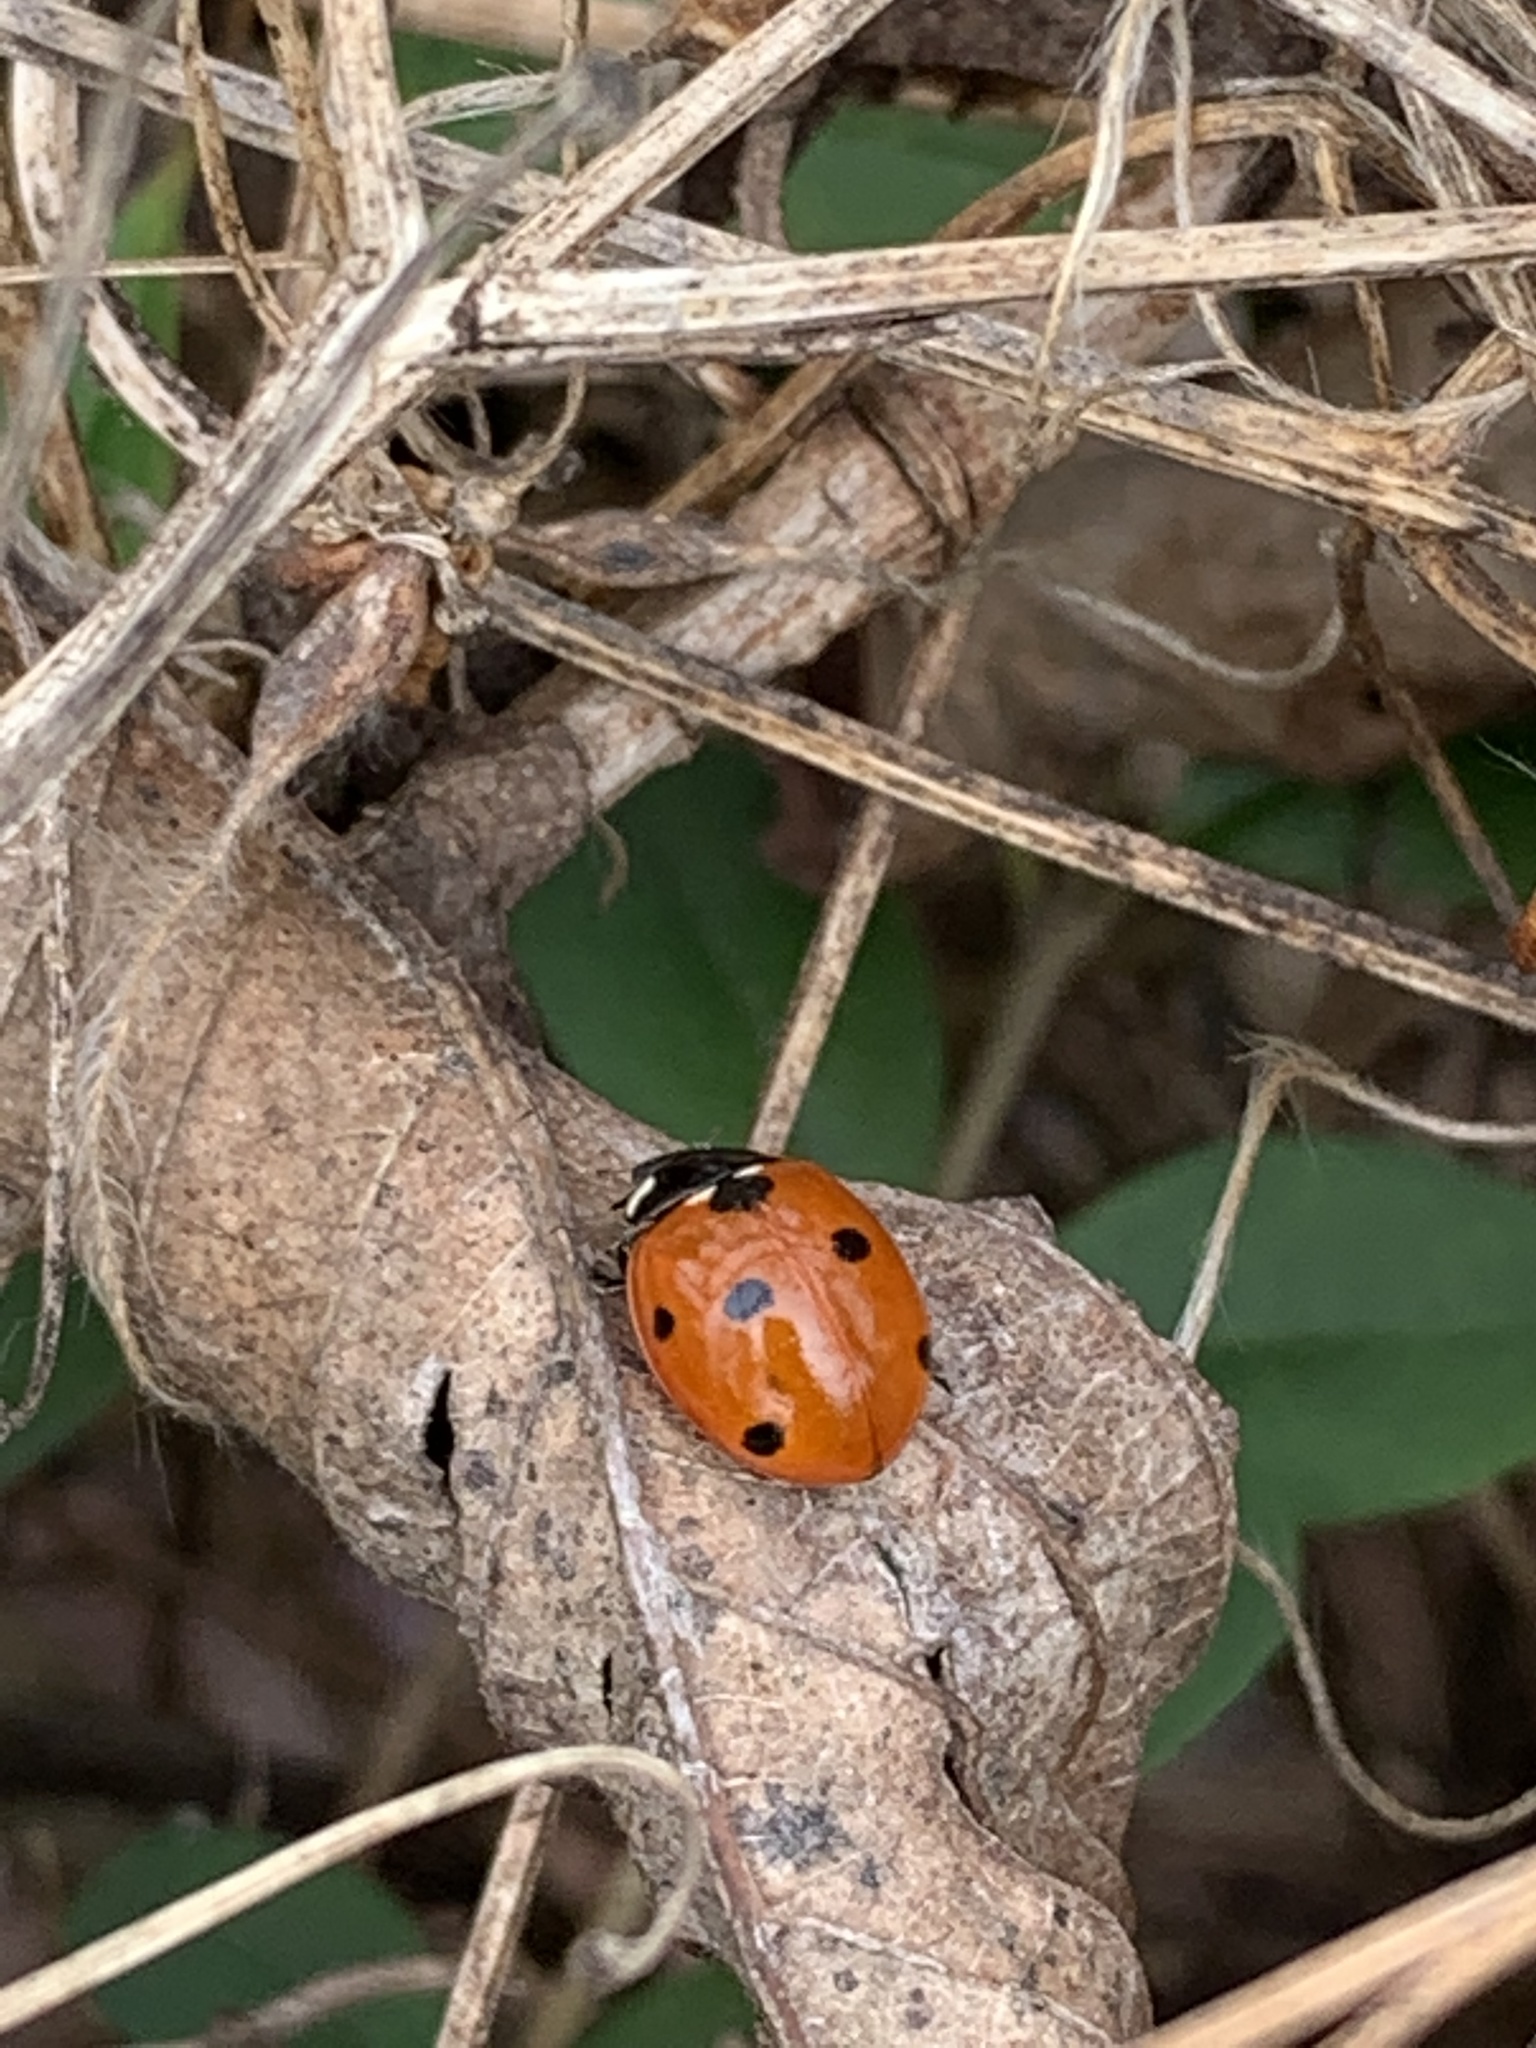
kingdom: Animalia
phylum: Arthropoda
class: Insecta
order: Coleoptera
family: Coccinellidae
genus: Coccinella
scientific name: Coccinella septempunctata
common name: Sevenspotted lady beetle
